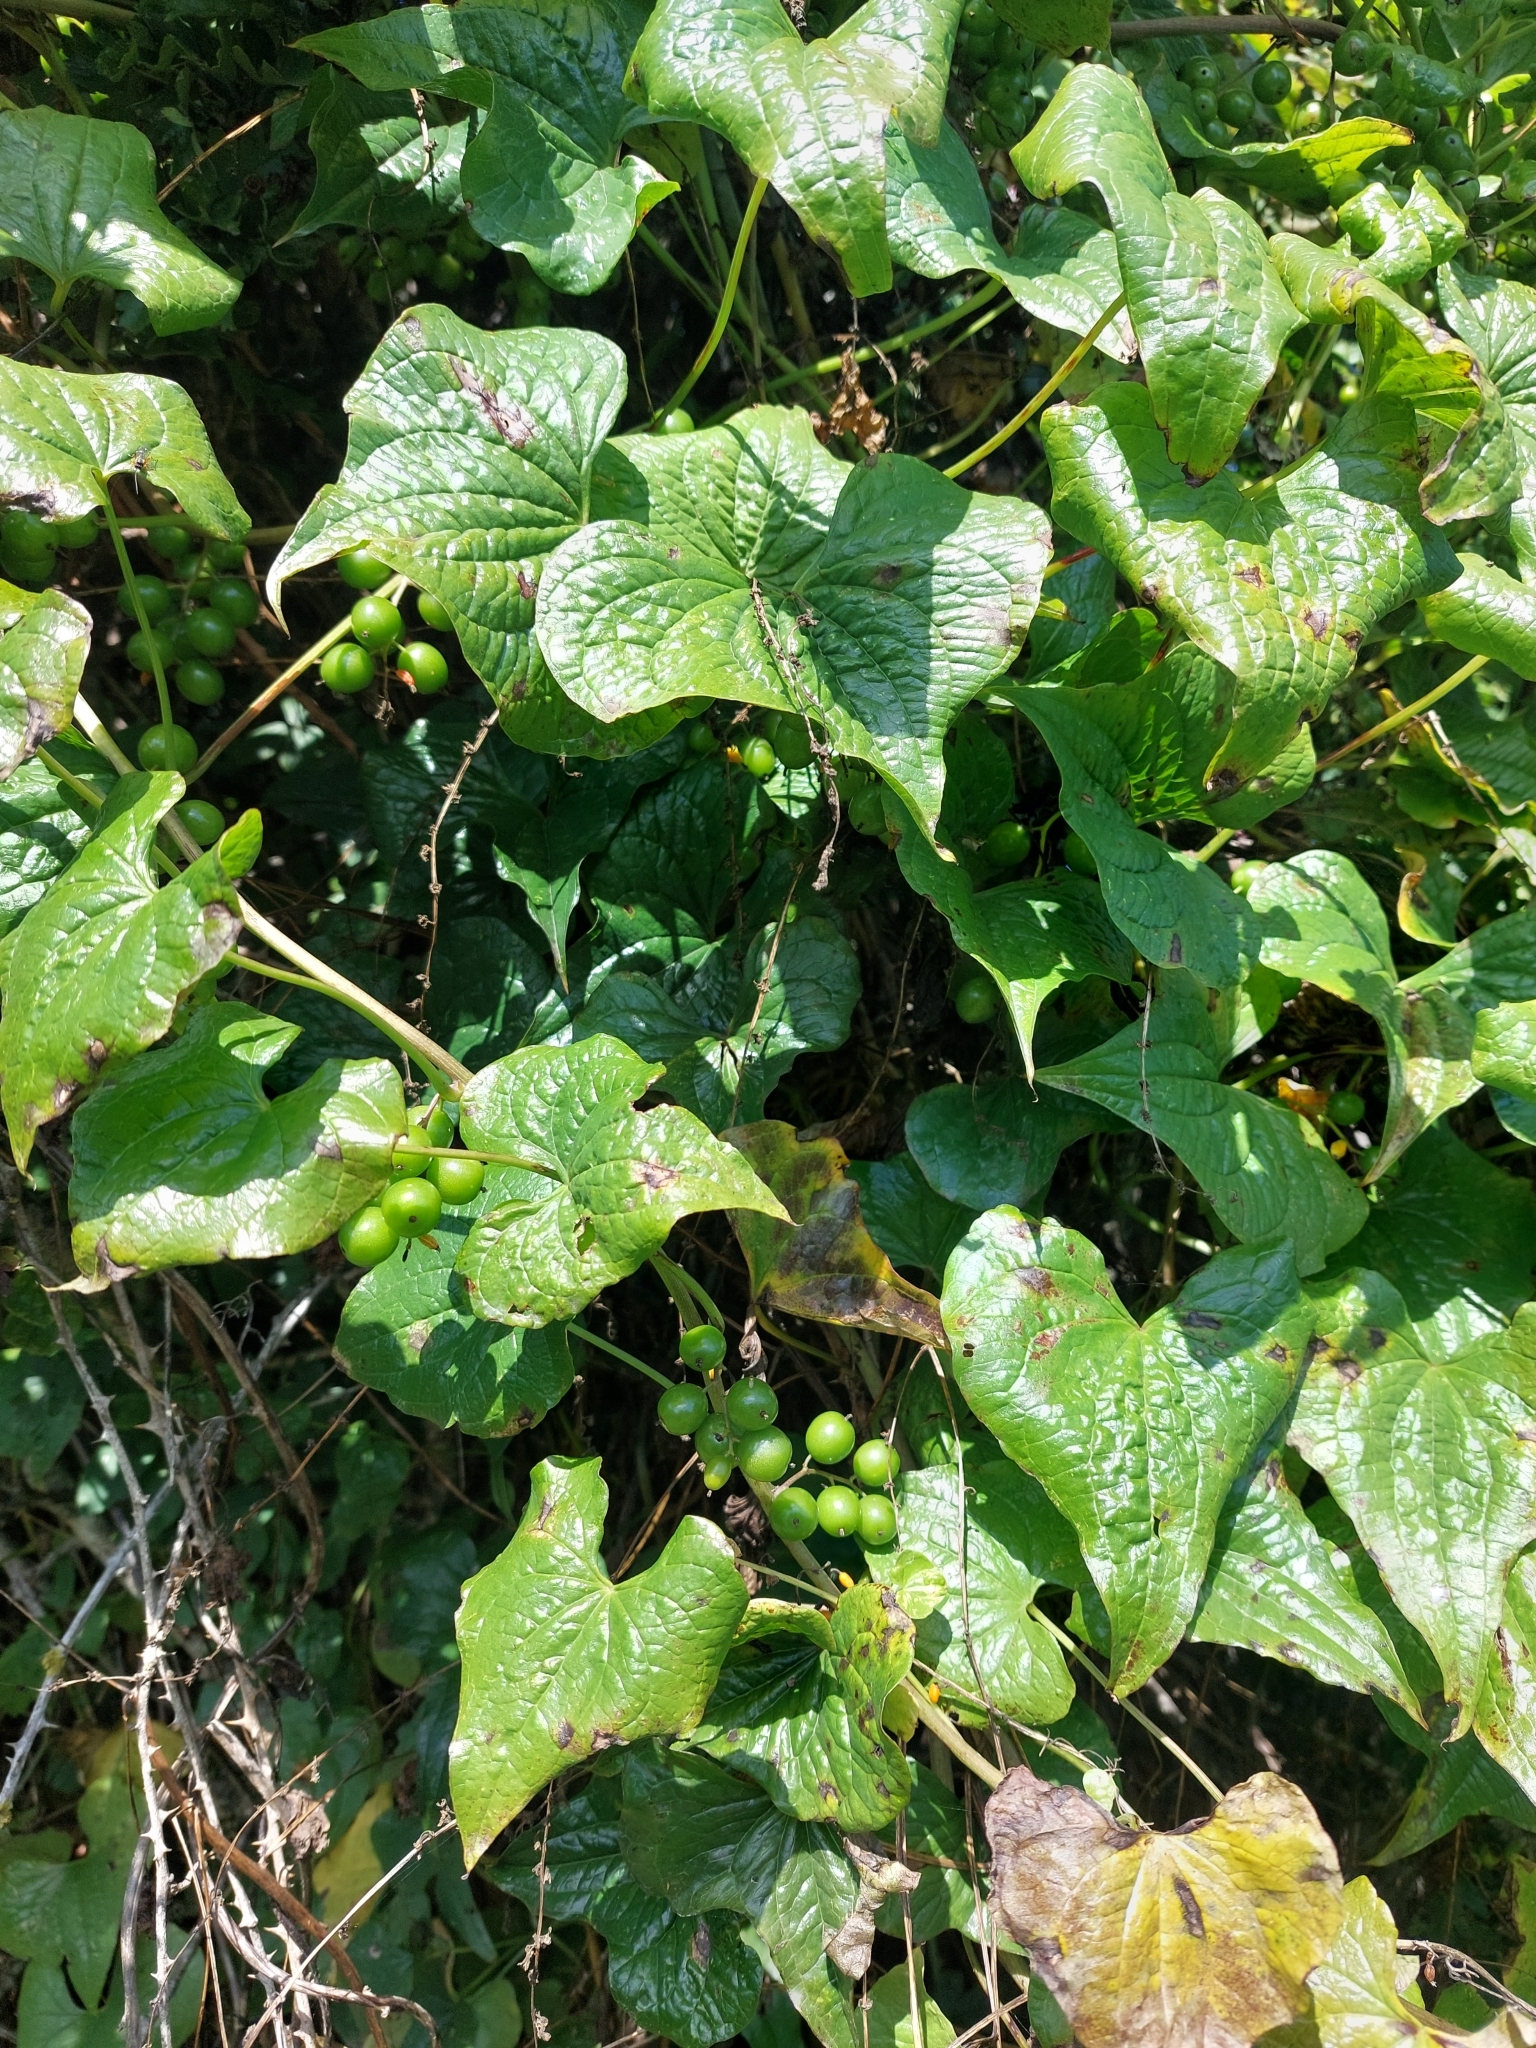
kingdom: Plantae
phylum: Tracheophyta
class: Liliopsida
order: Dioscoreales
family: Dioscoreaceae
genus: Dioscorea
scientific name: Dioscorea communis
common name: Black-bindweed
